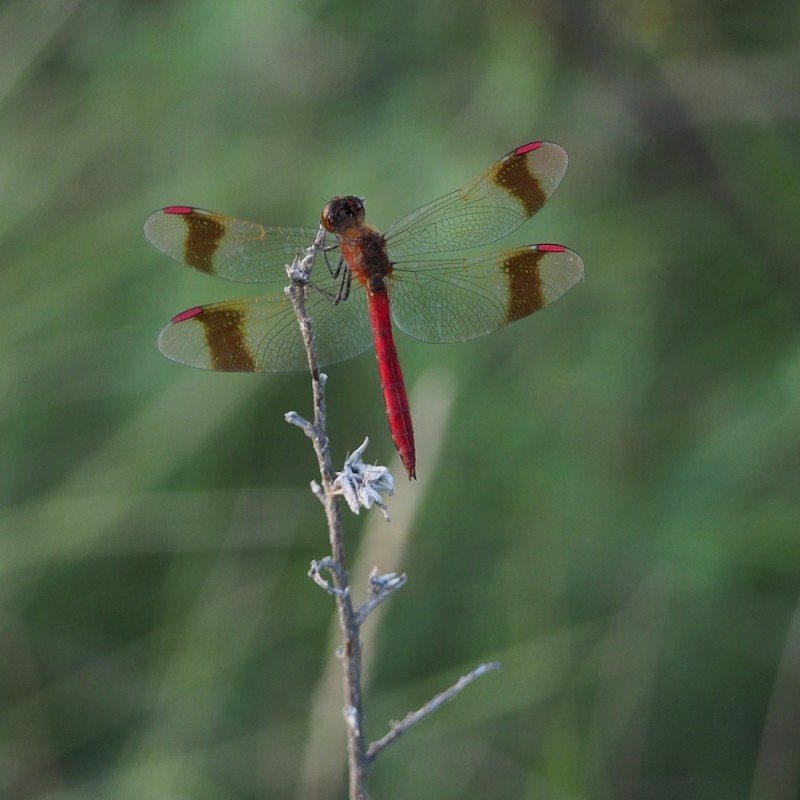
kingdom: Animalia
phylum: Arthropoda
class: Insecta
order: Odonata
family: Libellulidae
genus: Sympetrum
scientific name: Sympetrum pedemontanum
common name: Banded darter
